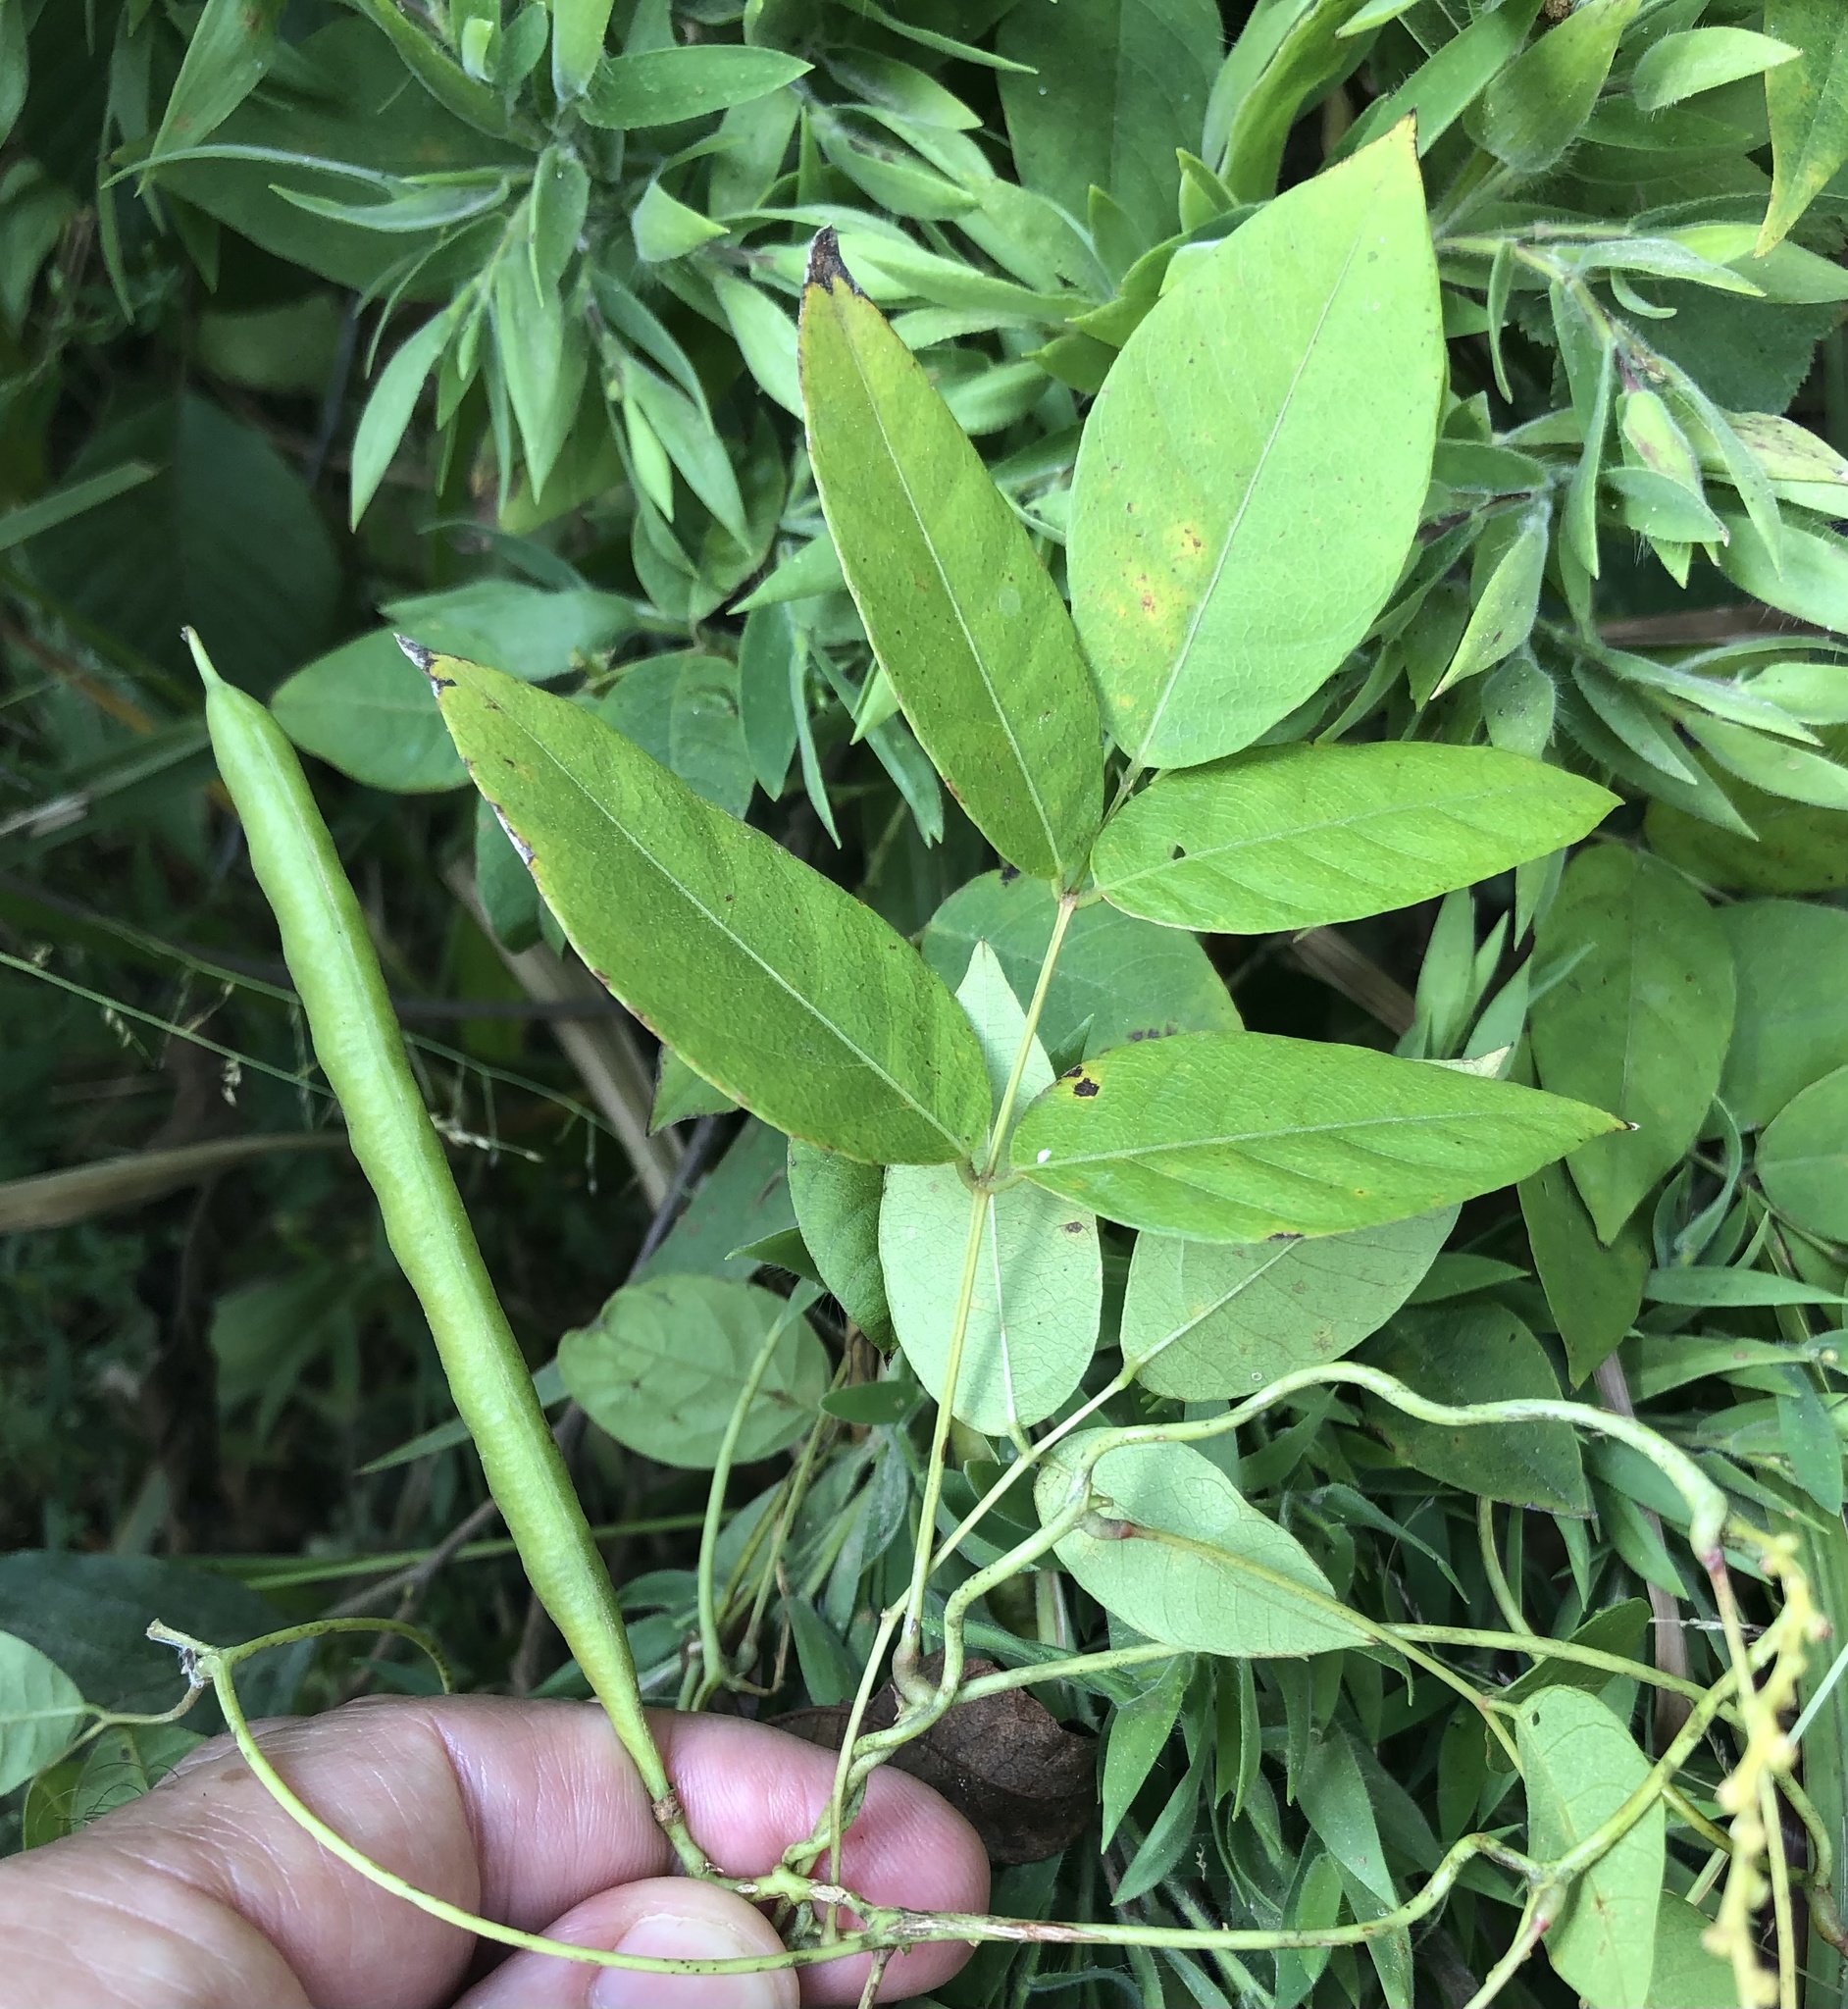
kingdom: Plantae
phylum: Tracheophyta
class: Magnoliopsida
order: Fabales
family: Fabaceae
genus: Apios
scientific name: Apios americana
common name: American potato-bean
